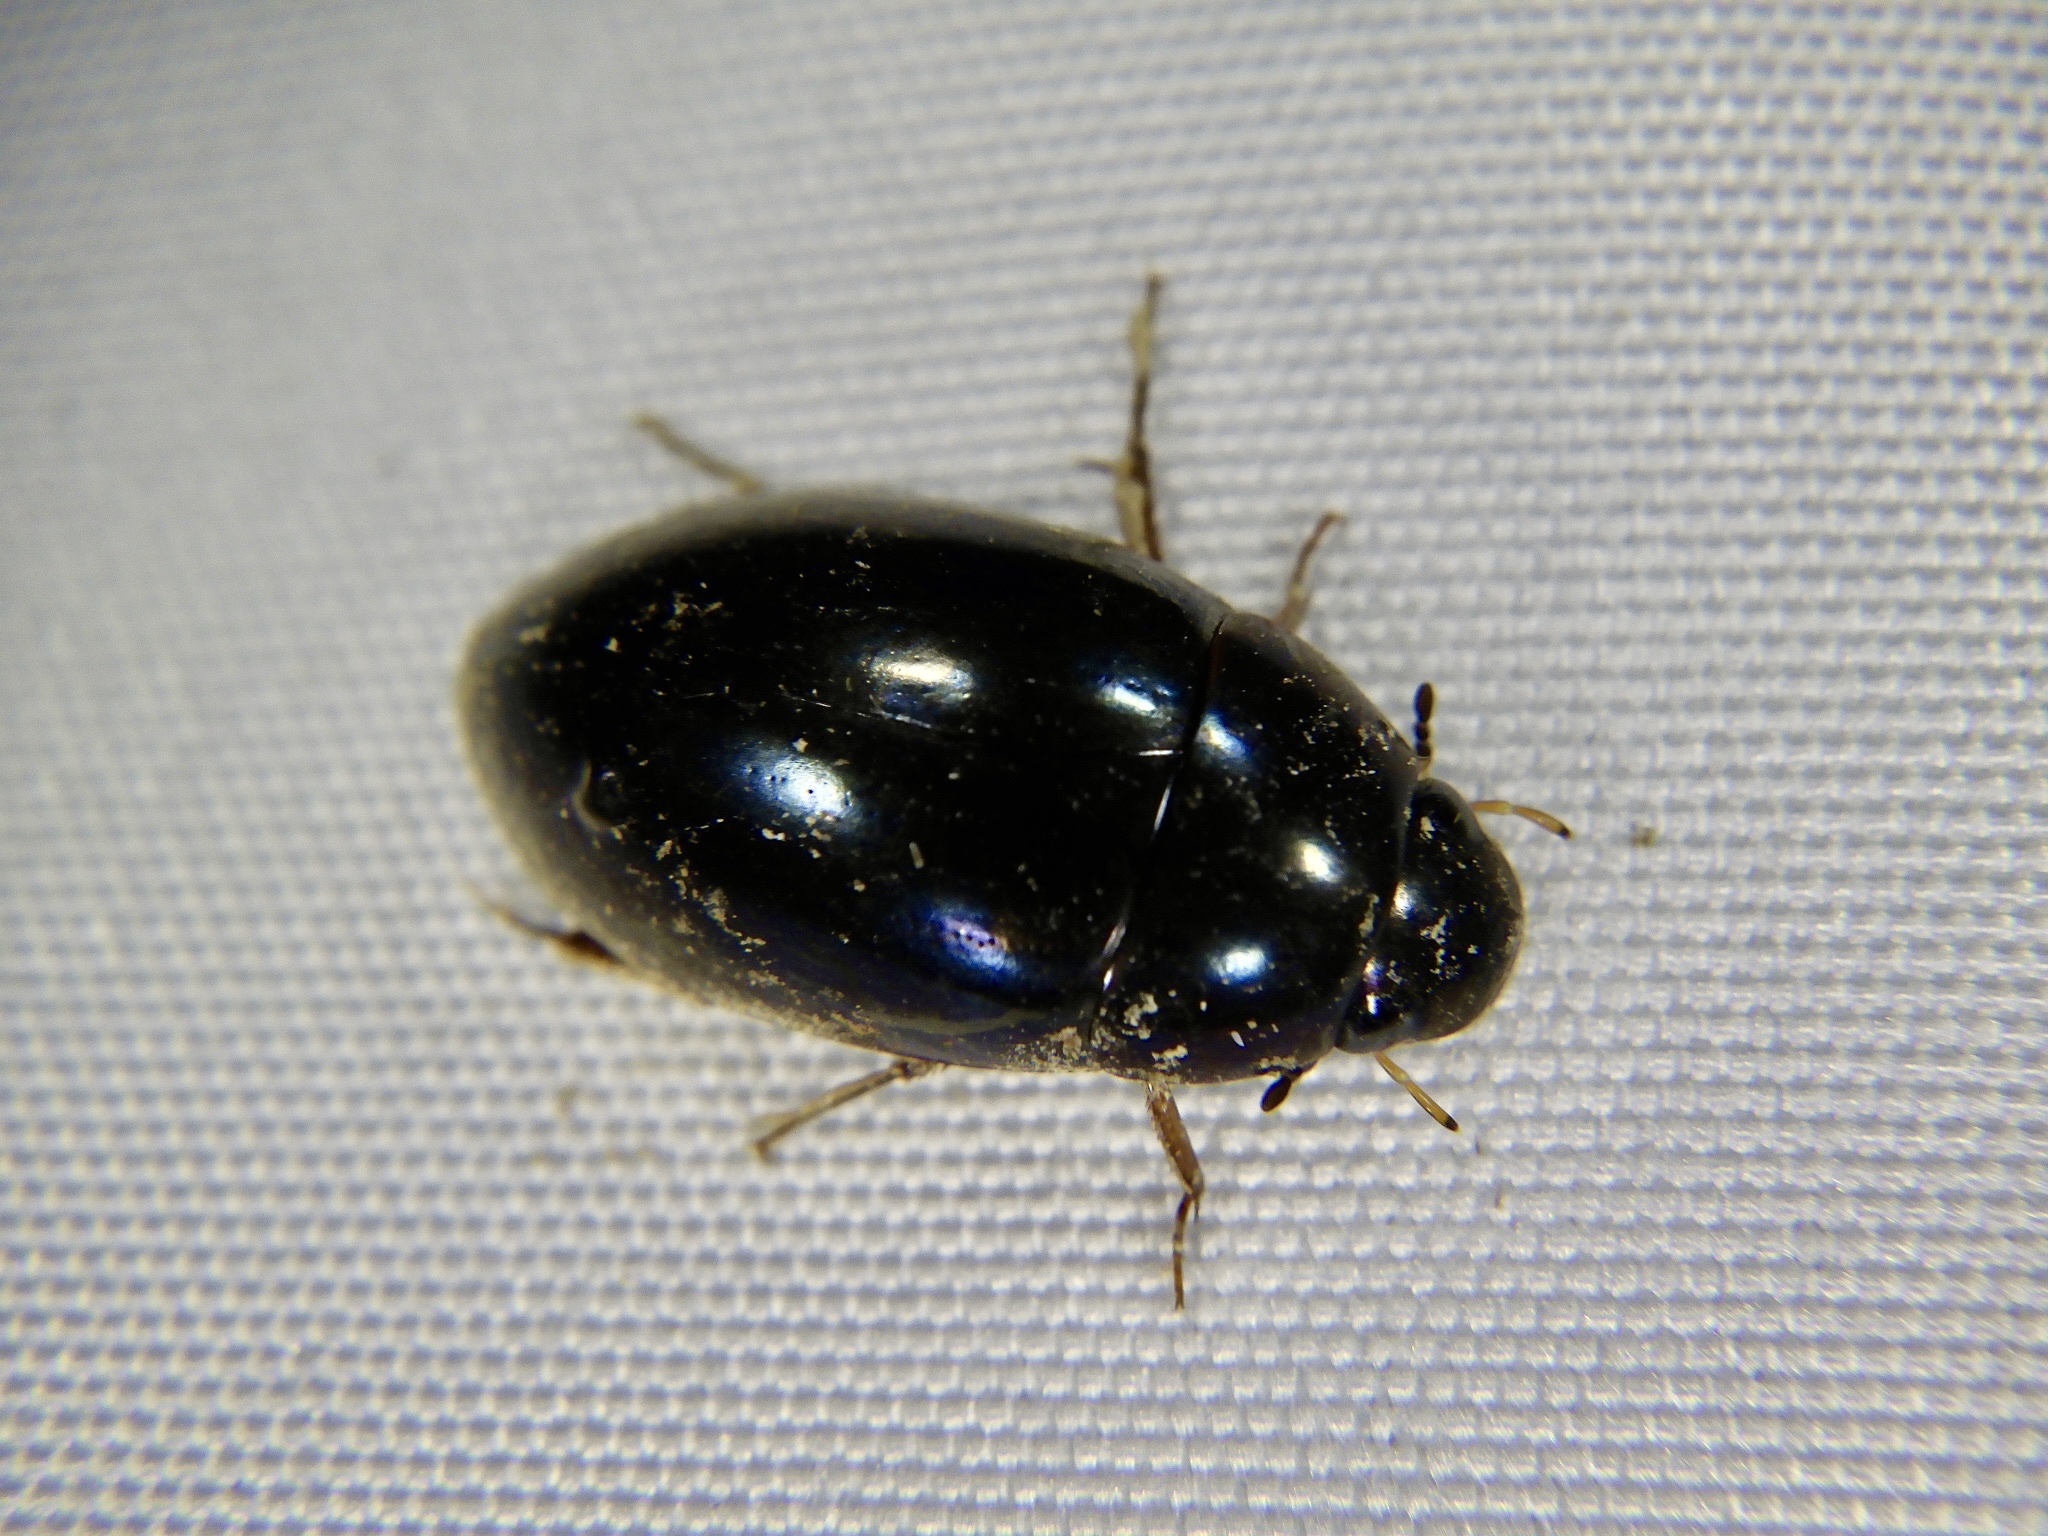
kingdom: Animalia
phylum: Arthropoda
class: Insecta
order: Coleoptera
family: Hydrophilidae
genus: Sternolophus
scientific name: Sternolophus rufipes
